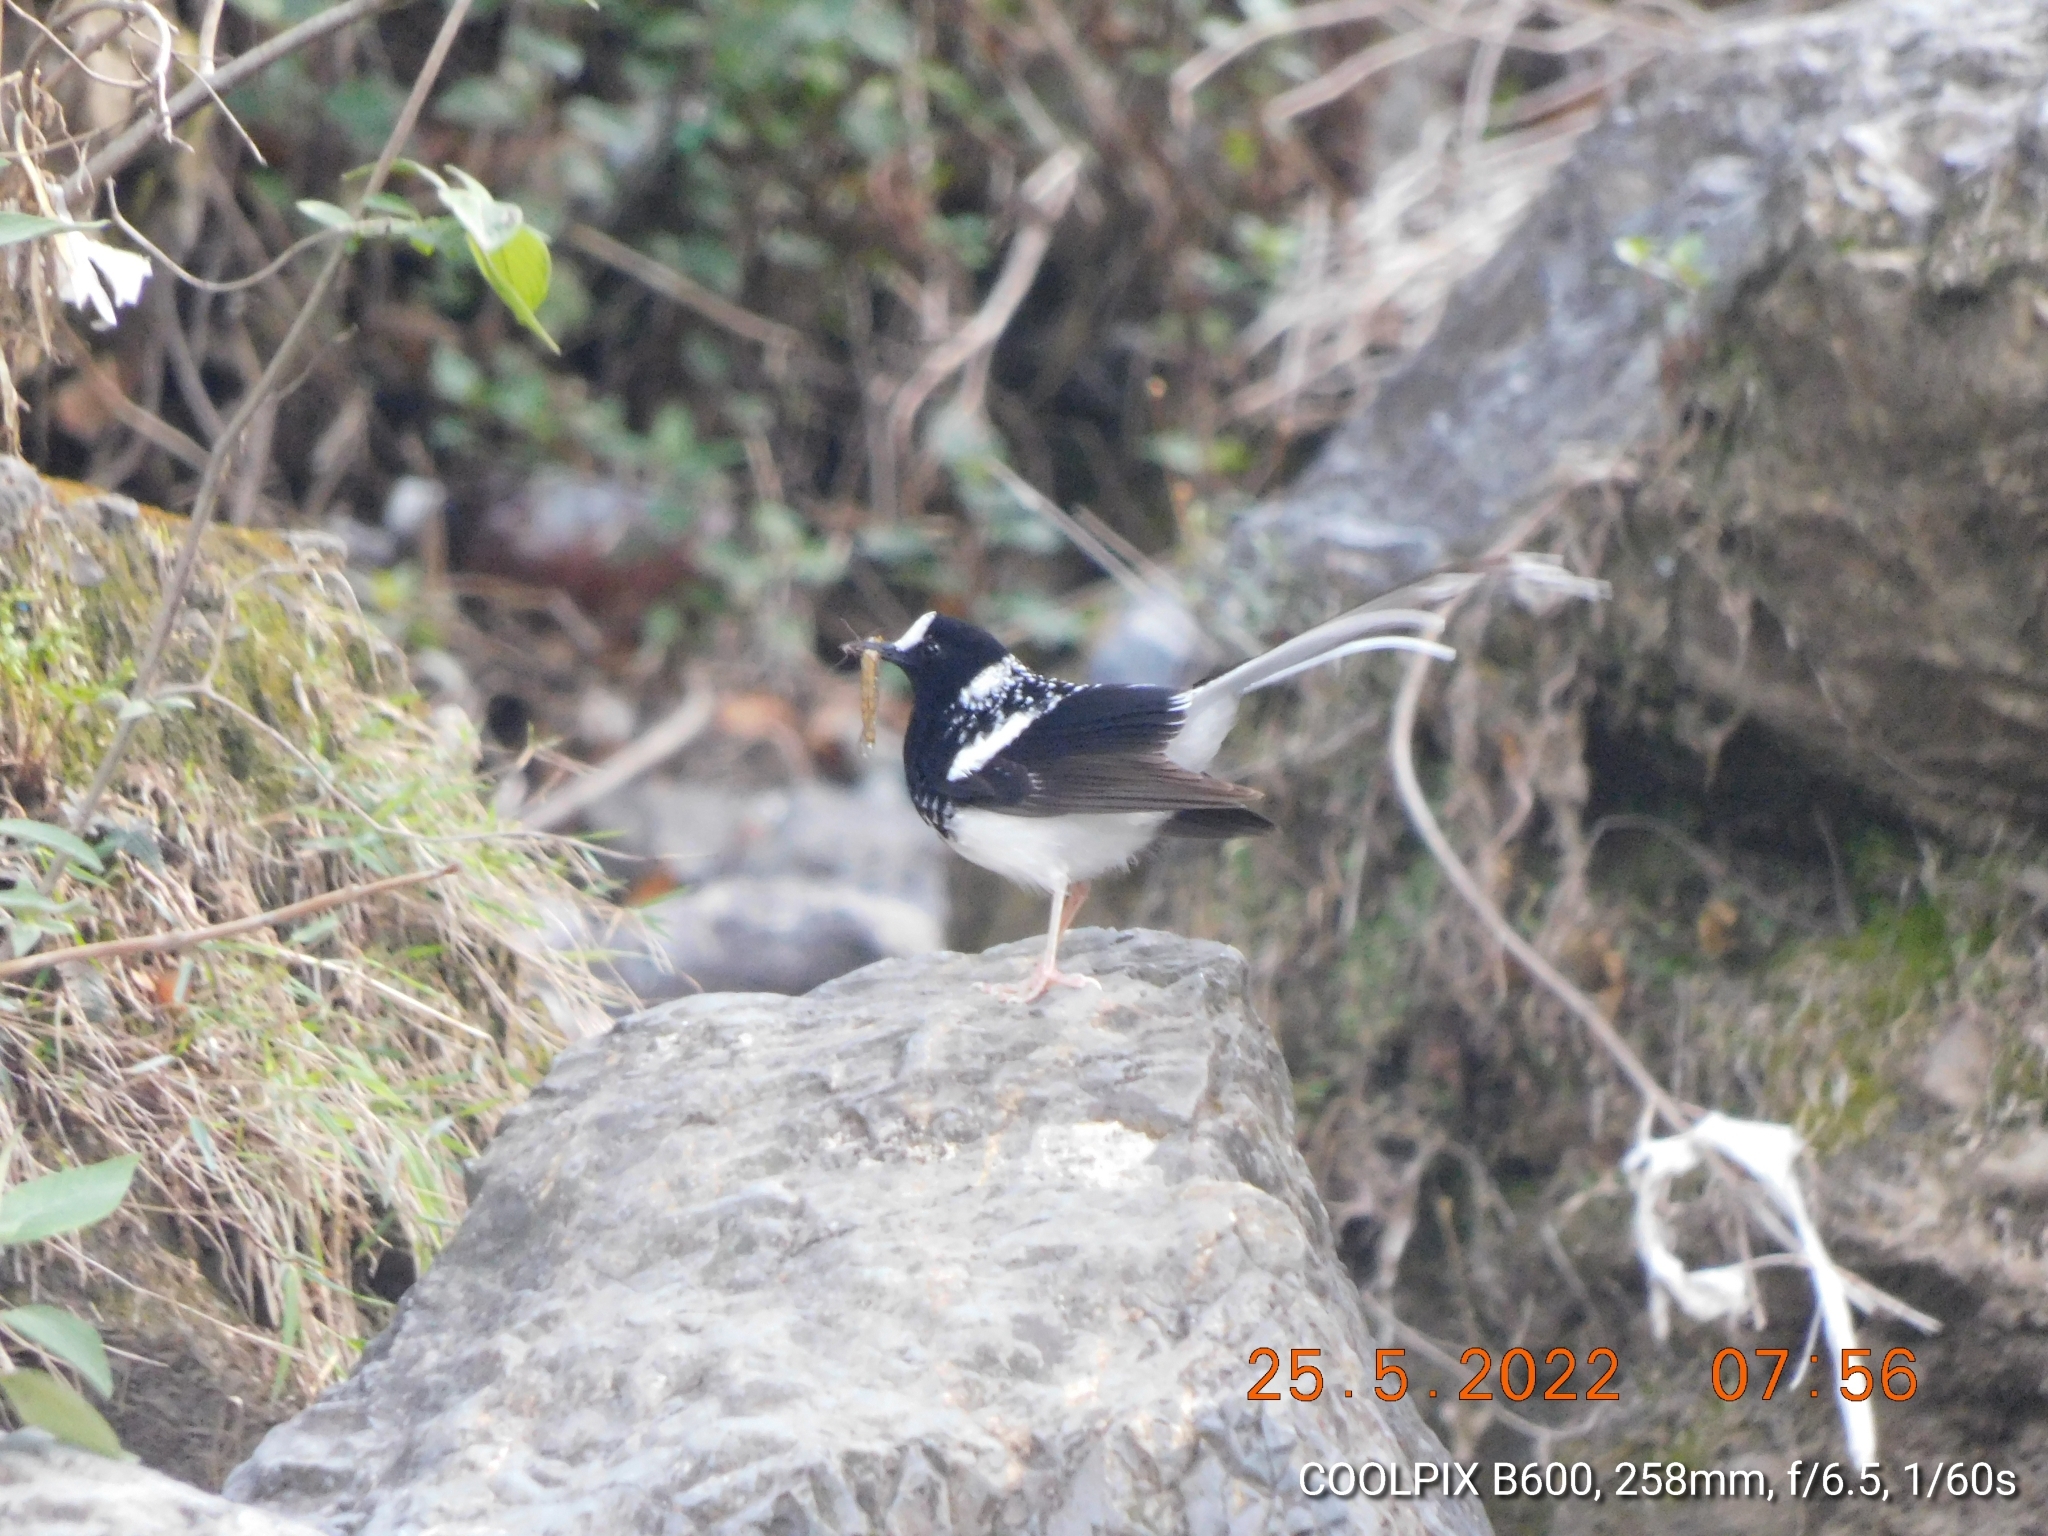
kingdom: Animalia
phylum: Chordata
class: Aves
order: Passeriformes
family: Muscicapidae
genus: Enicurus
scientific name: Enicurus maculatus
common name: Spotted forktail
